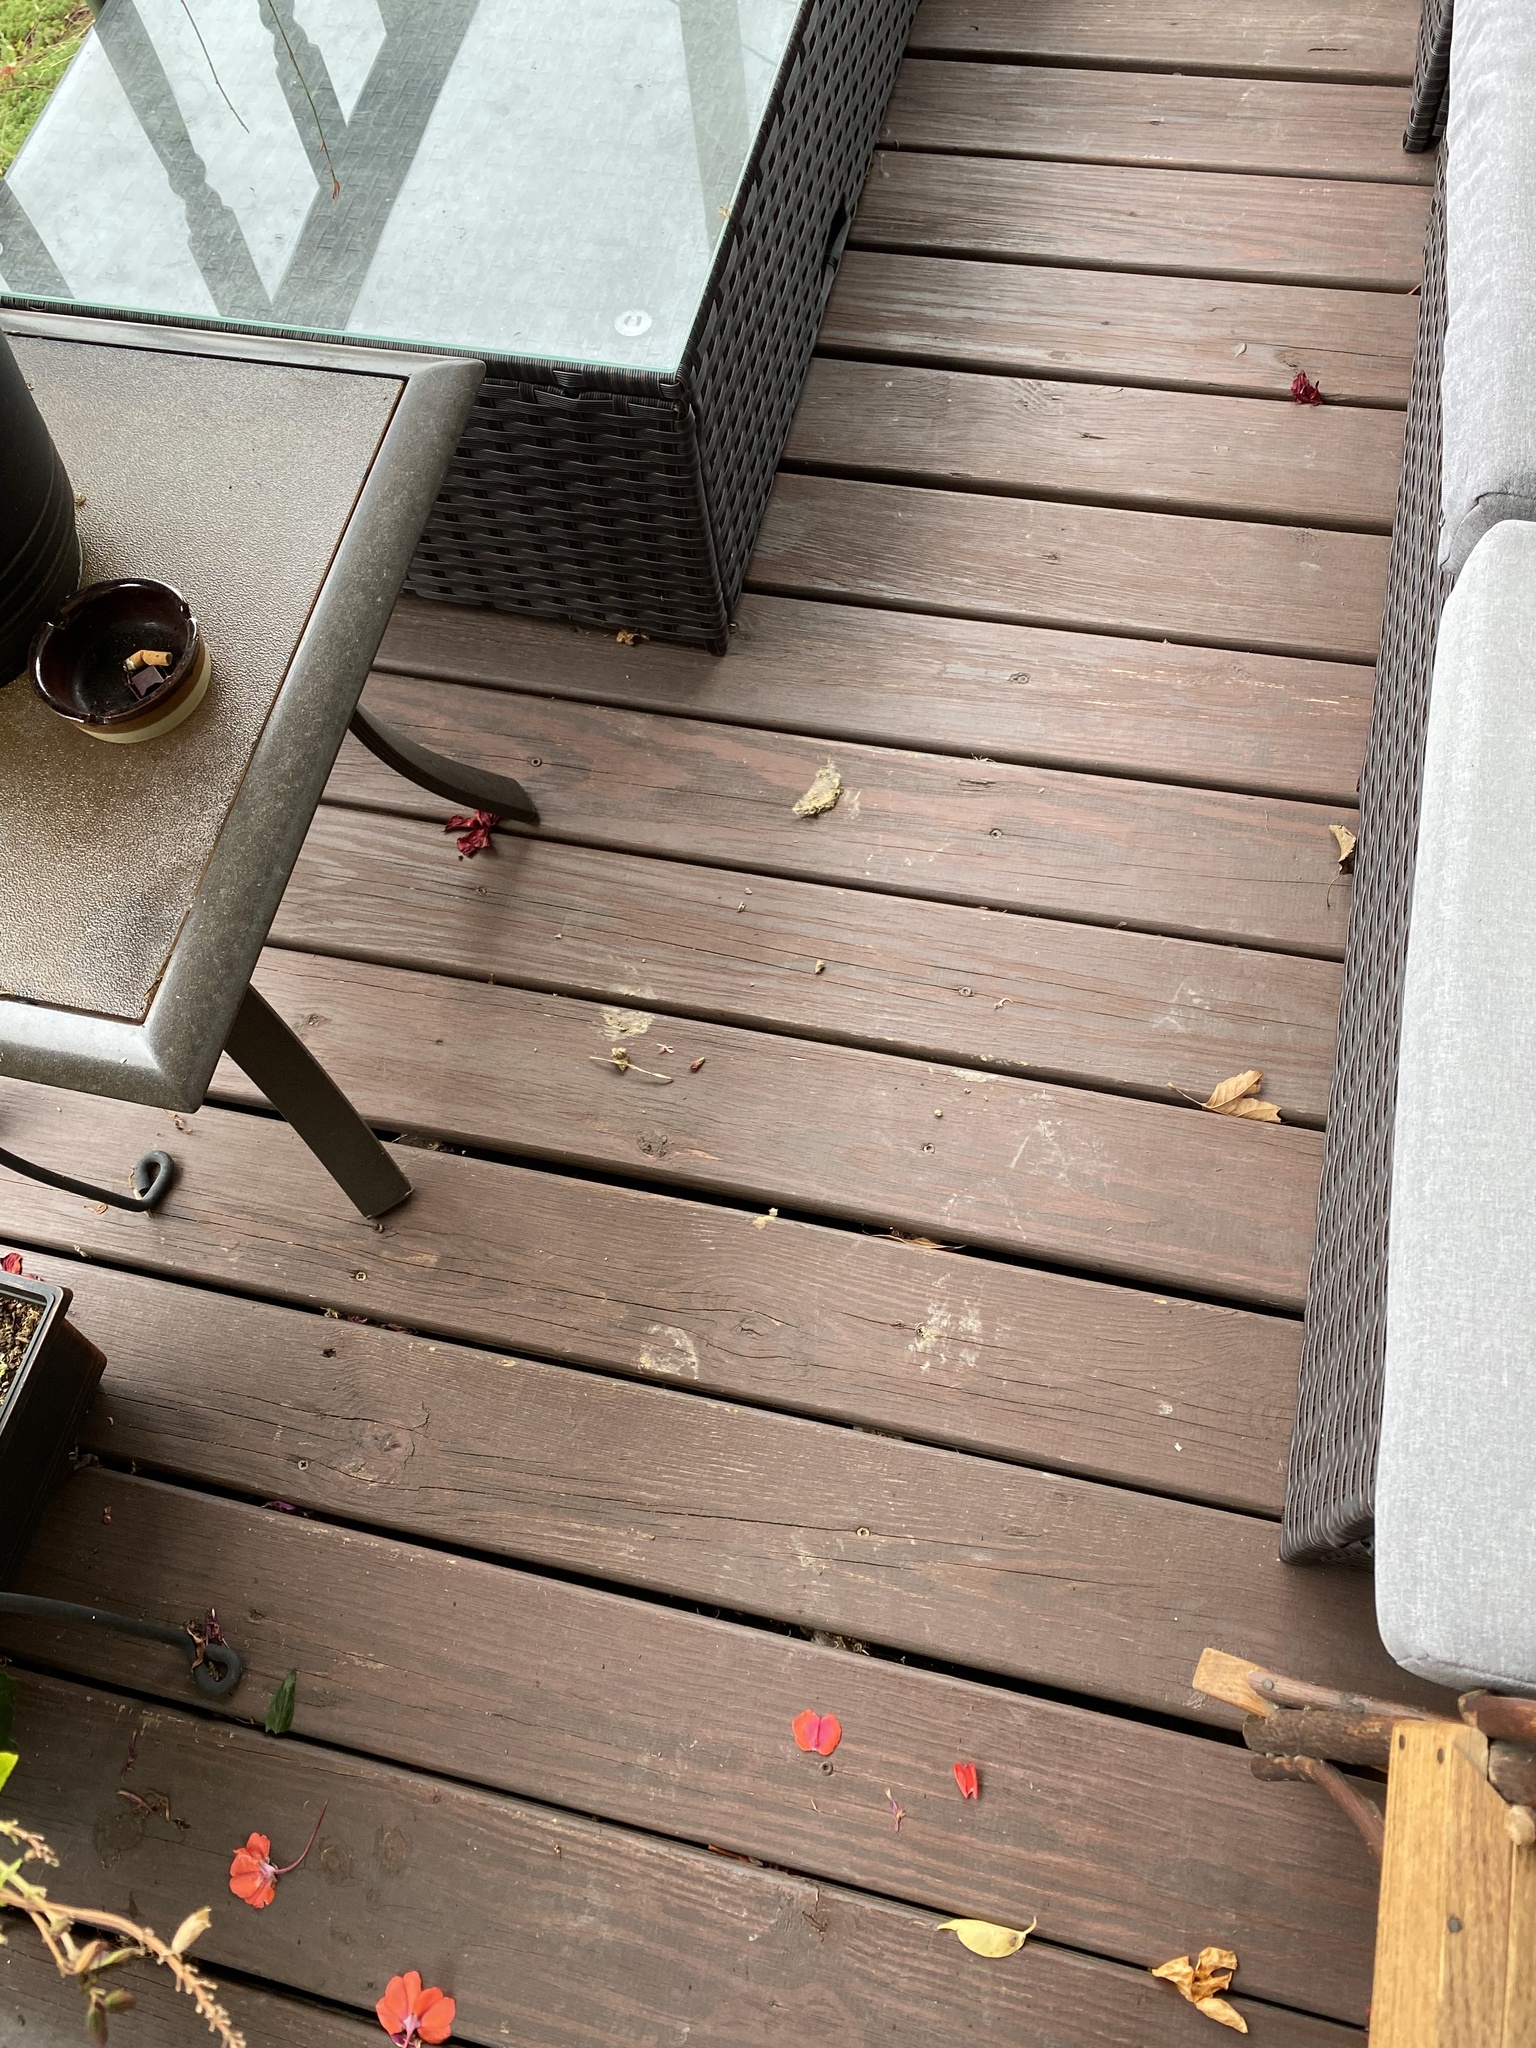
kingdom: Animalia
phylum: Chordata
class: Mammalia
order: Artiodactyla
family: Cervidae
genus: Odocoileus
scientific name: Odocoileus virginianus
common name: White-tailed deer
